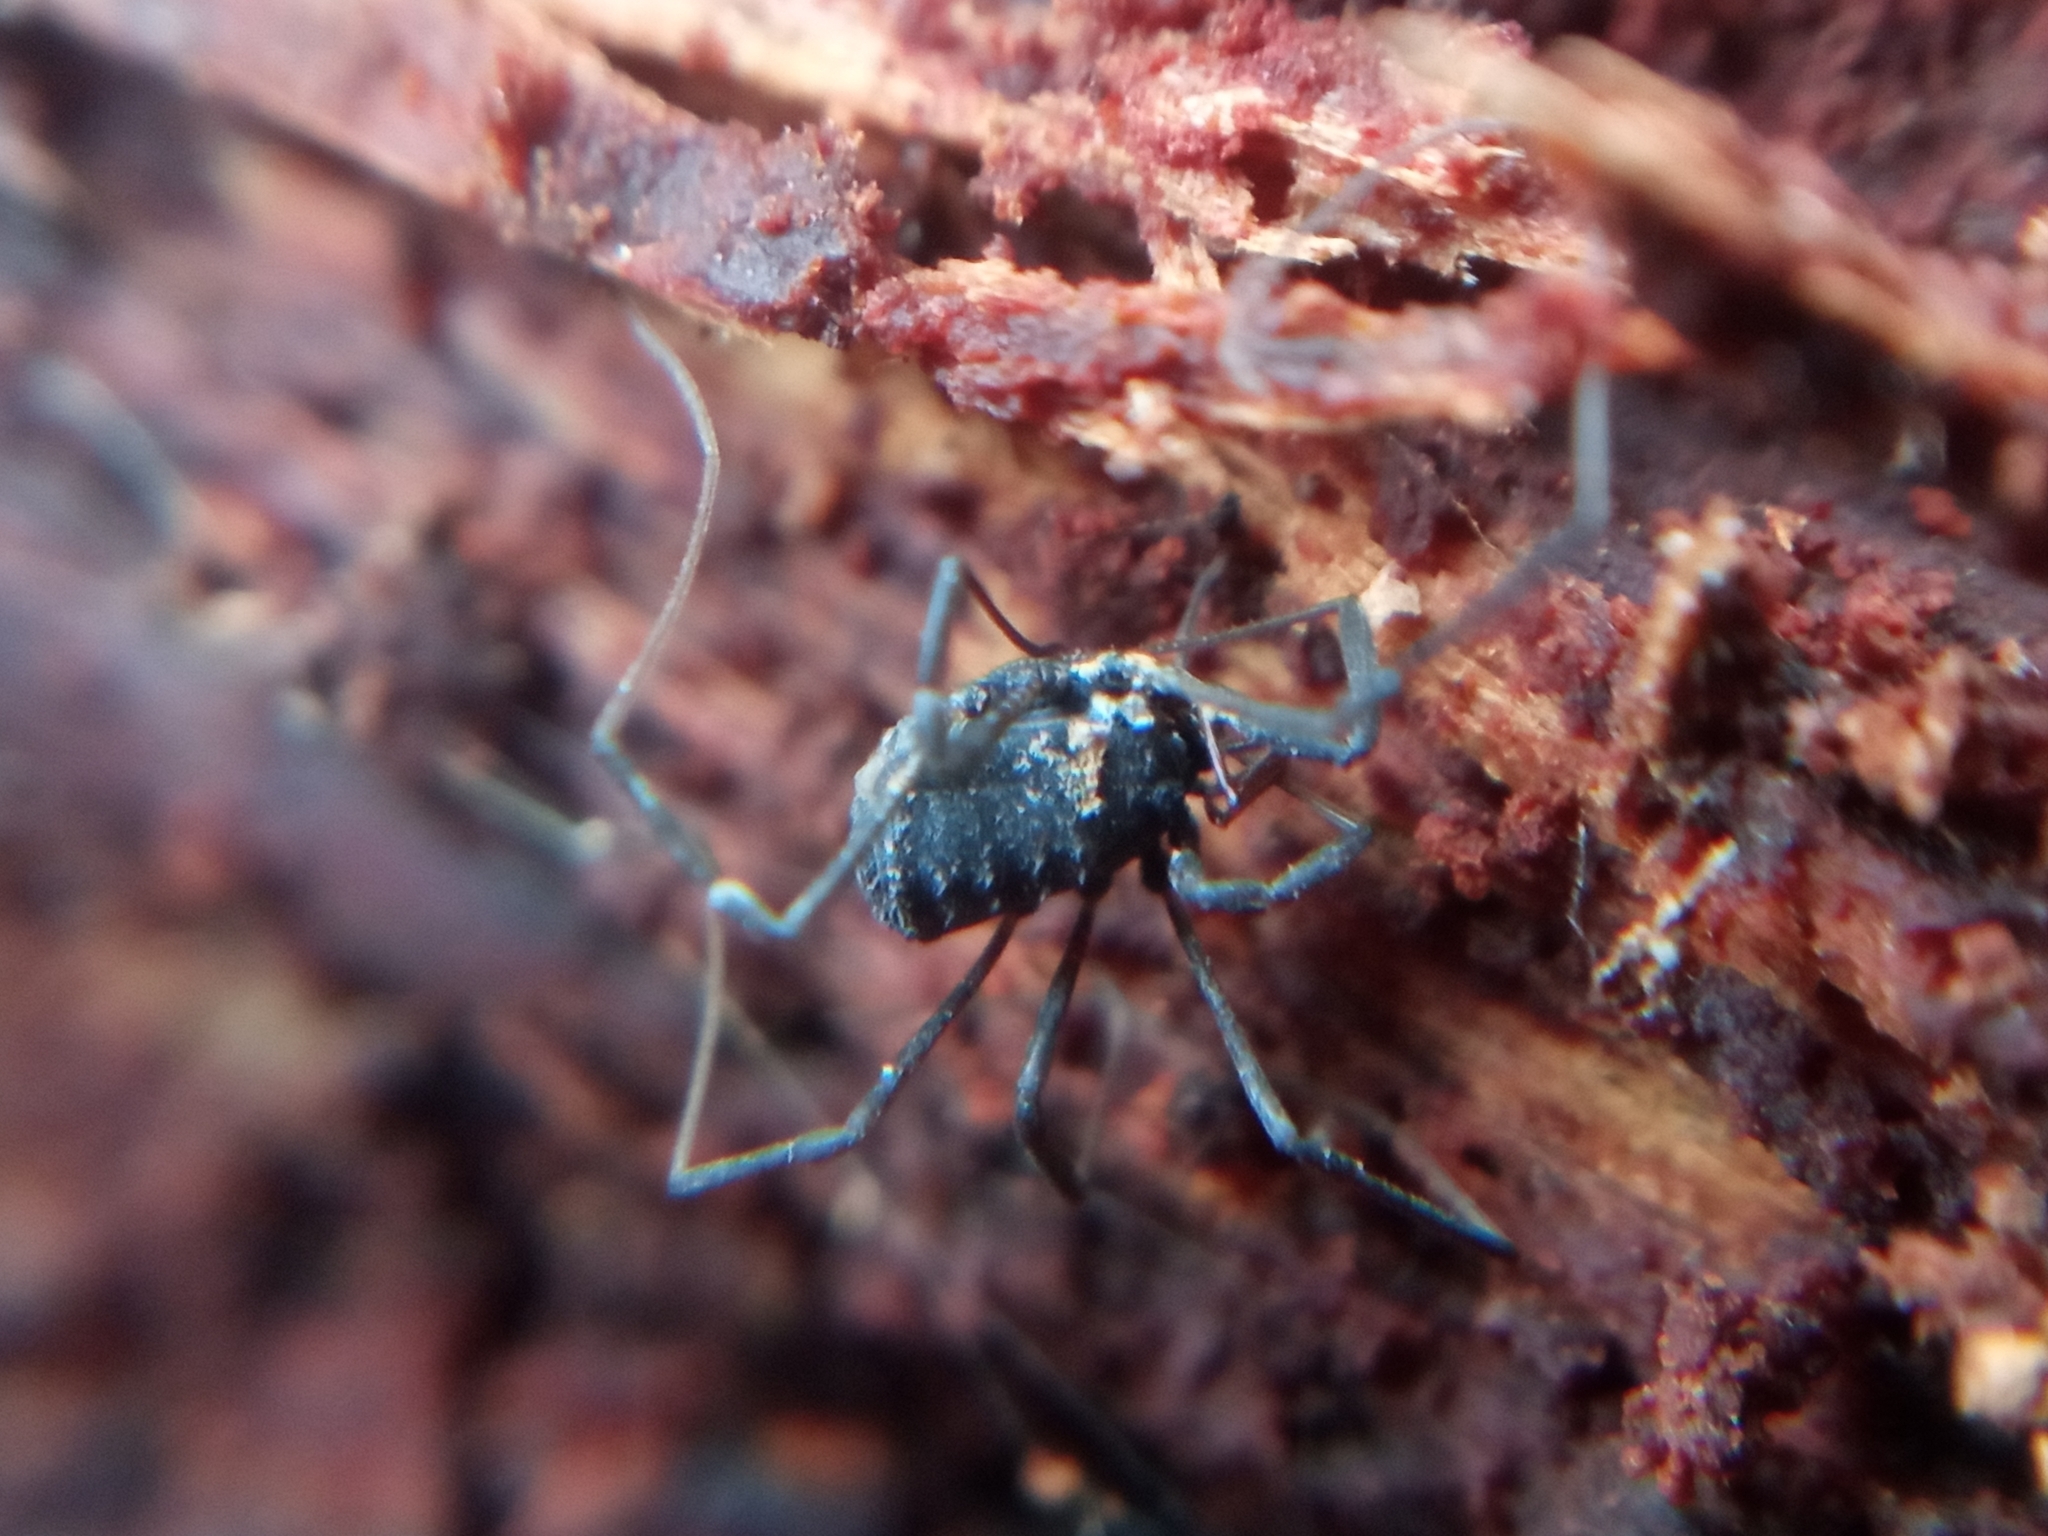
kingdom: Animalia
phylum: Arthropoda
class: Arachnida
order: Opiliones
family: Nemastomatidae
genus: Histricostoma
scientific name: Histricostoma dentipalpe
